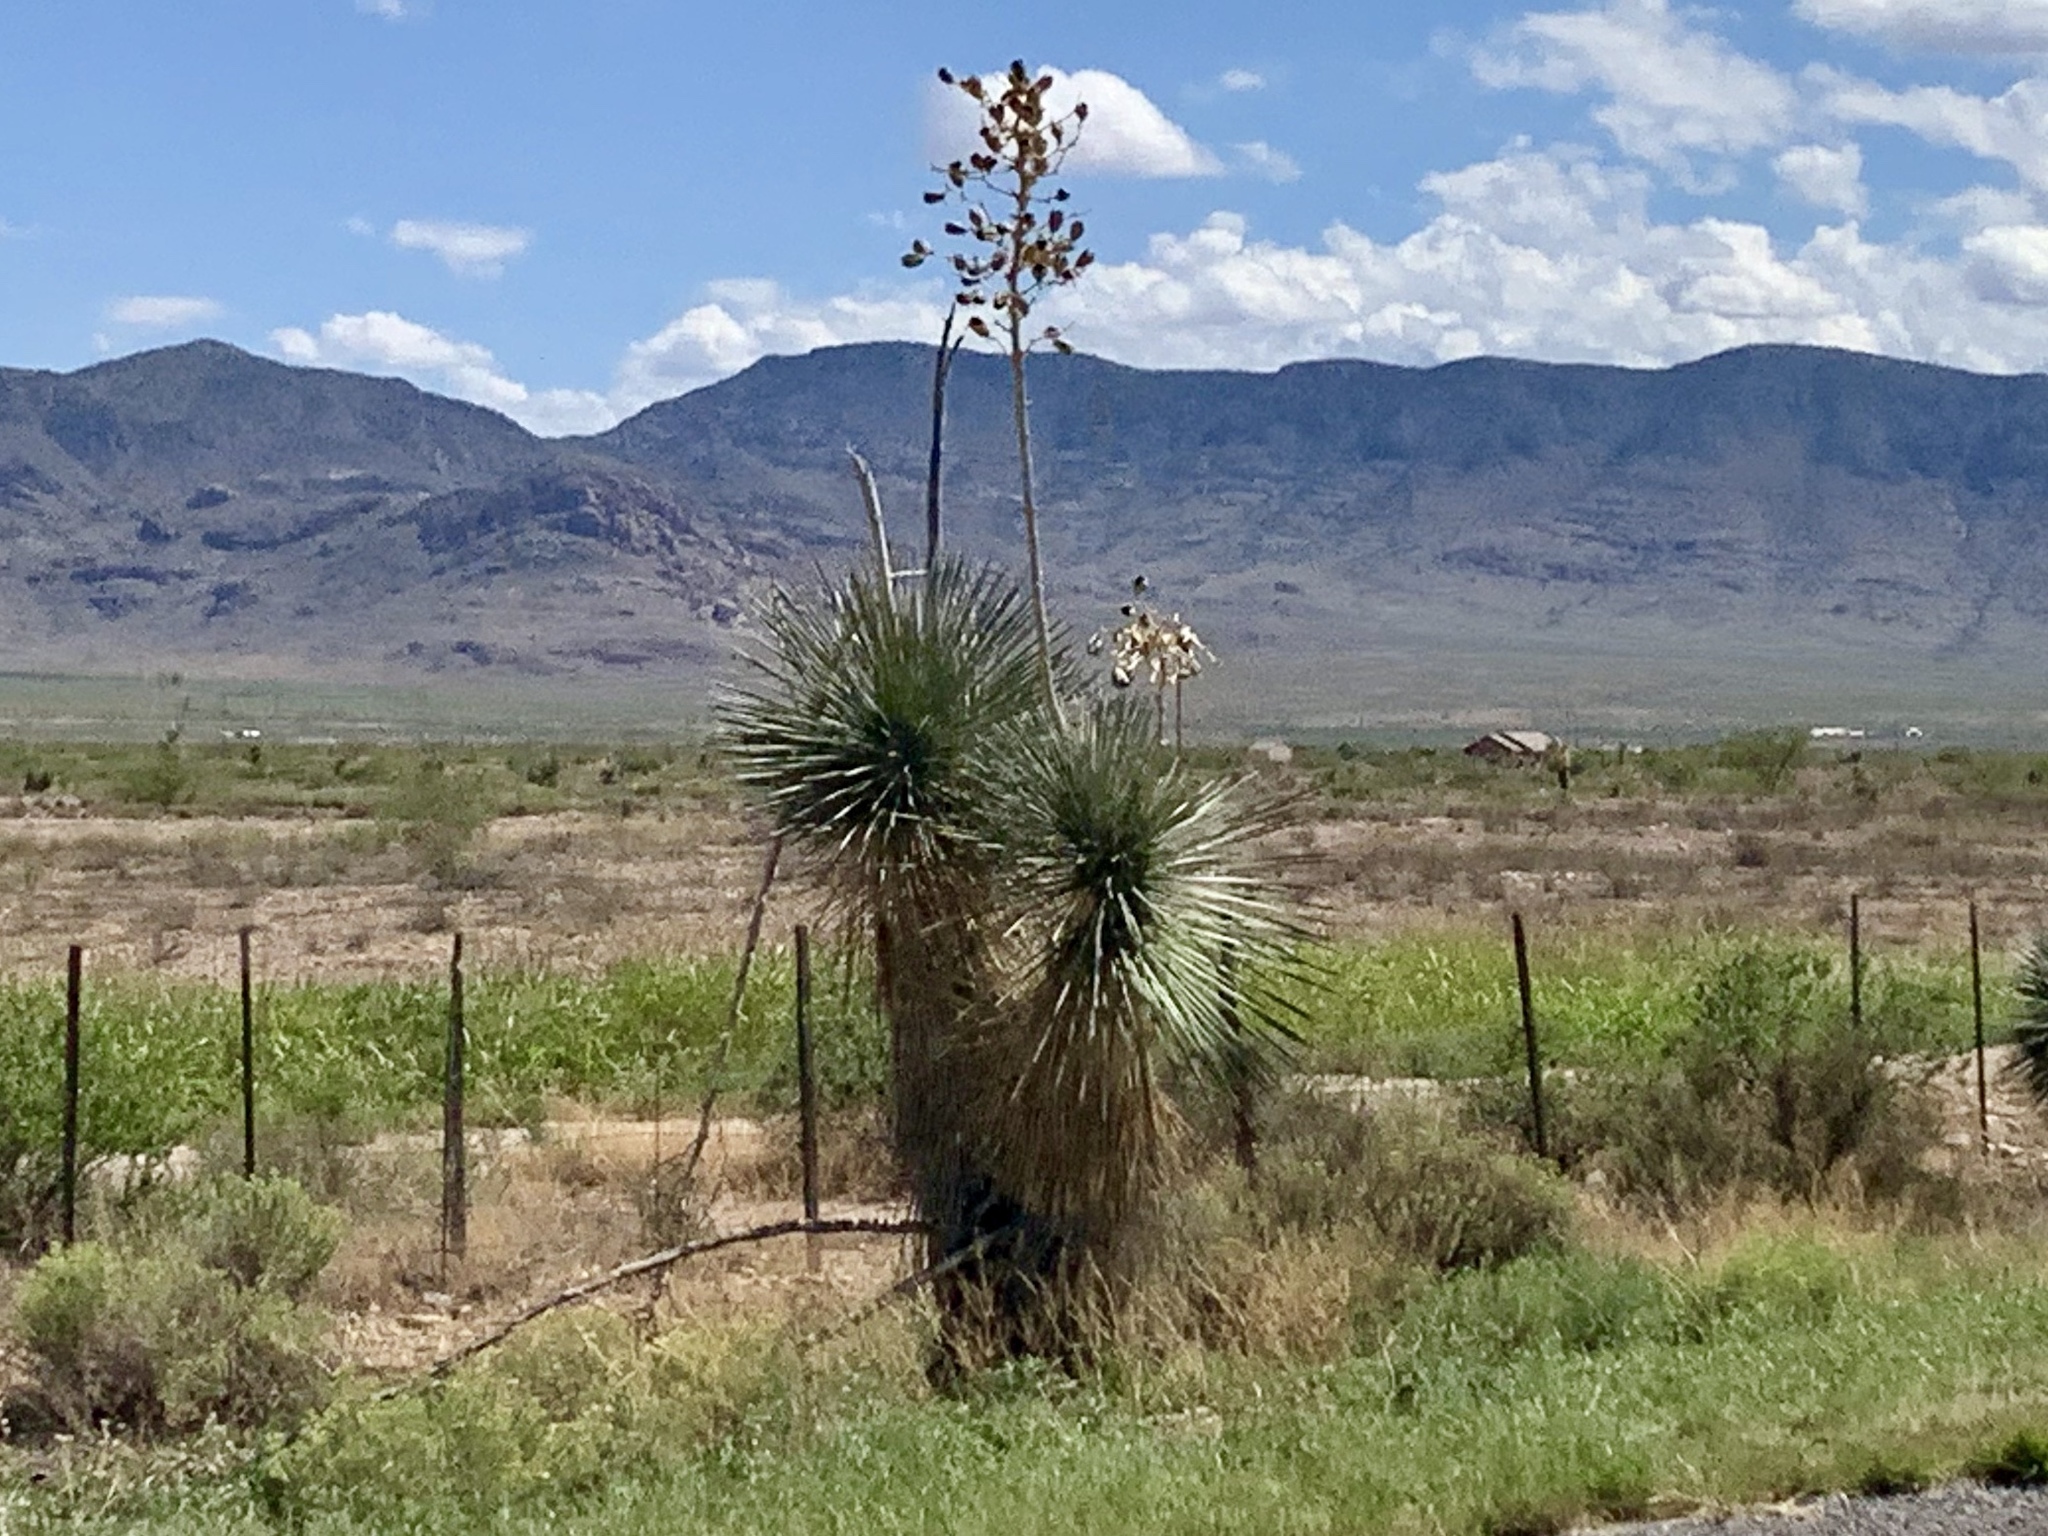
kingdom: Plantae
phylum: Tracheophyta
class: Liliopsida
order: Asparagales
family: Asparagaceae
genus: Yucca
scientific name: Yucca elata
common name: Palmella
